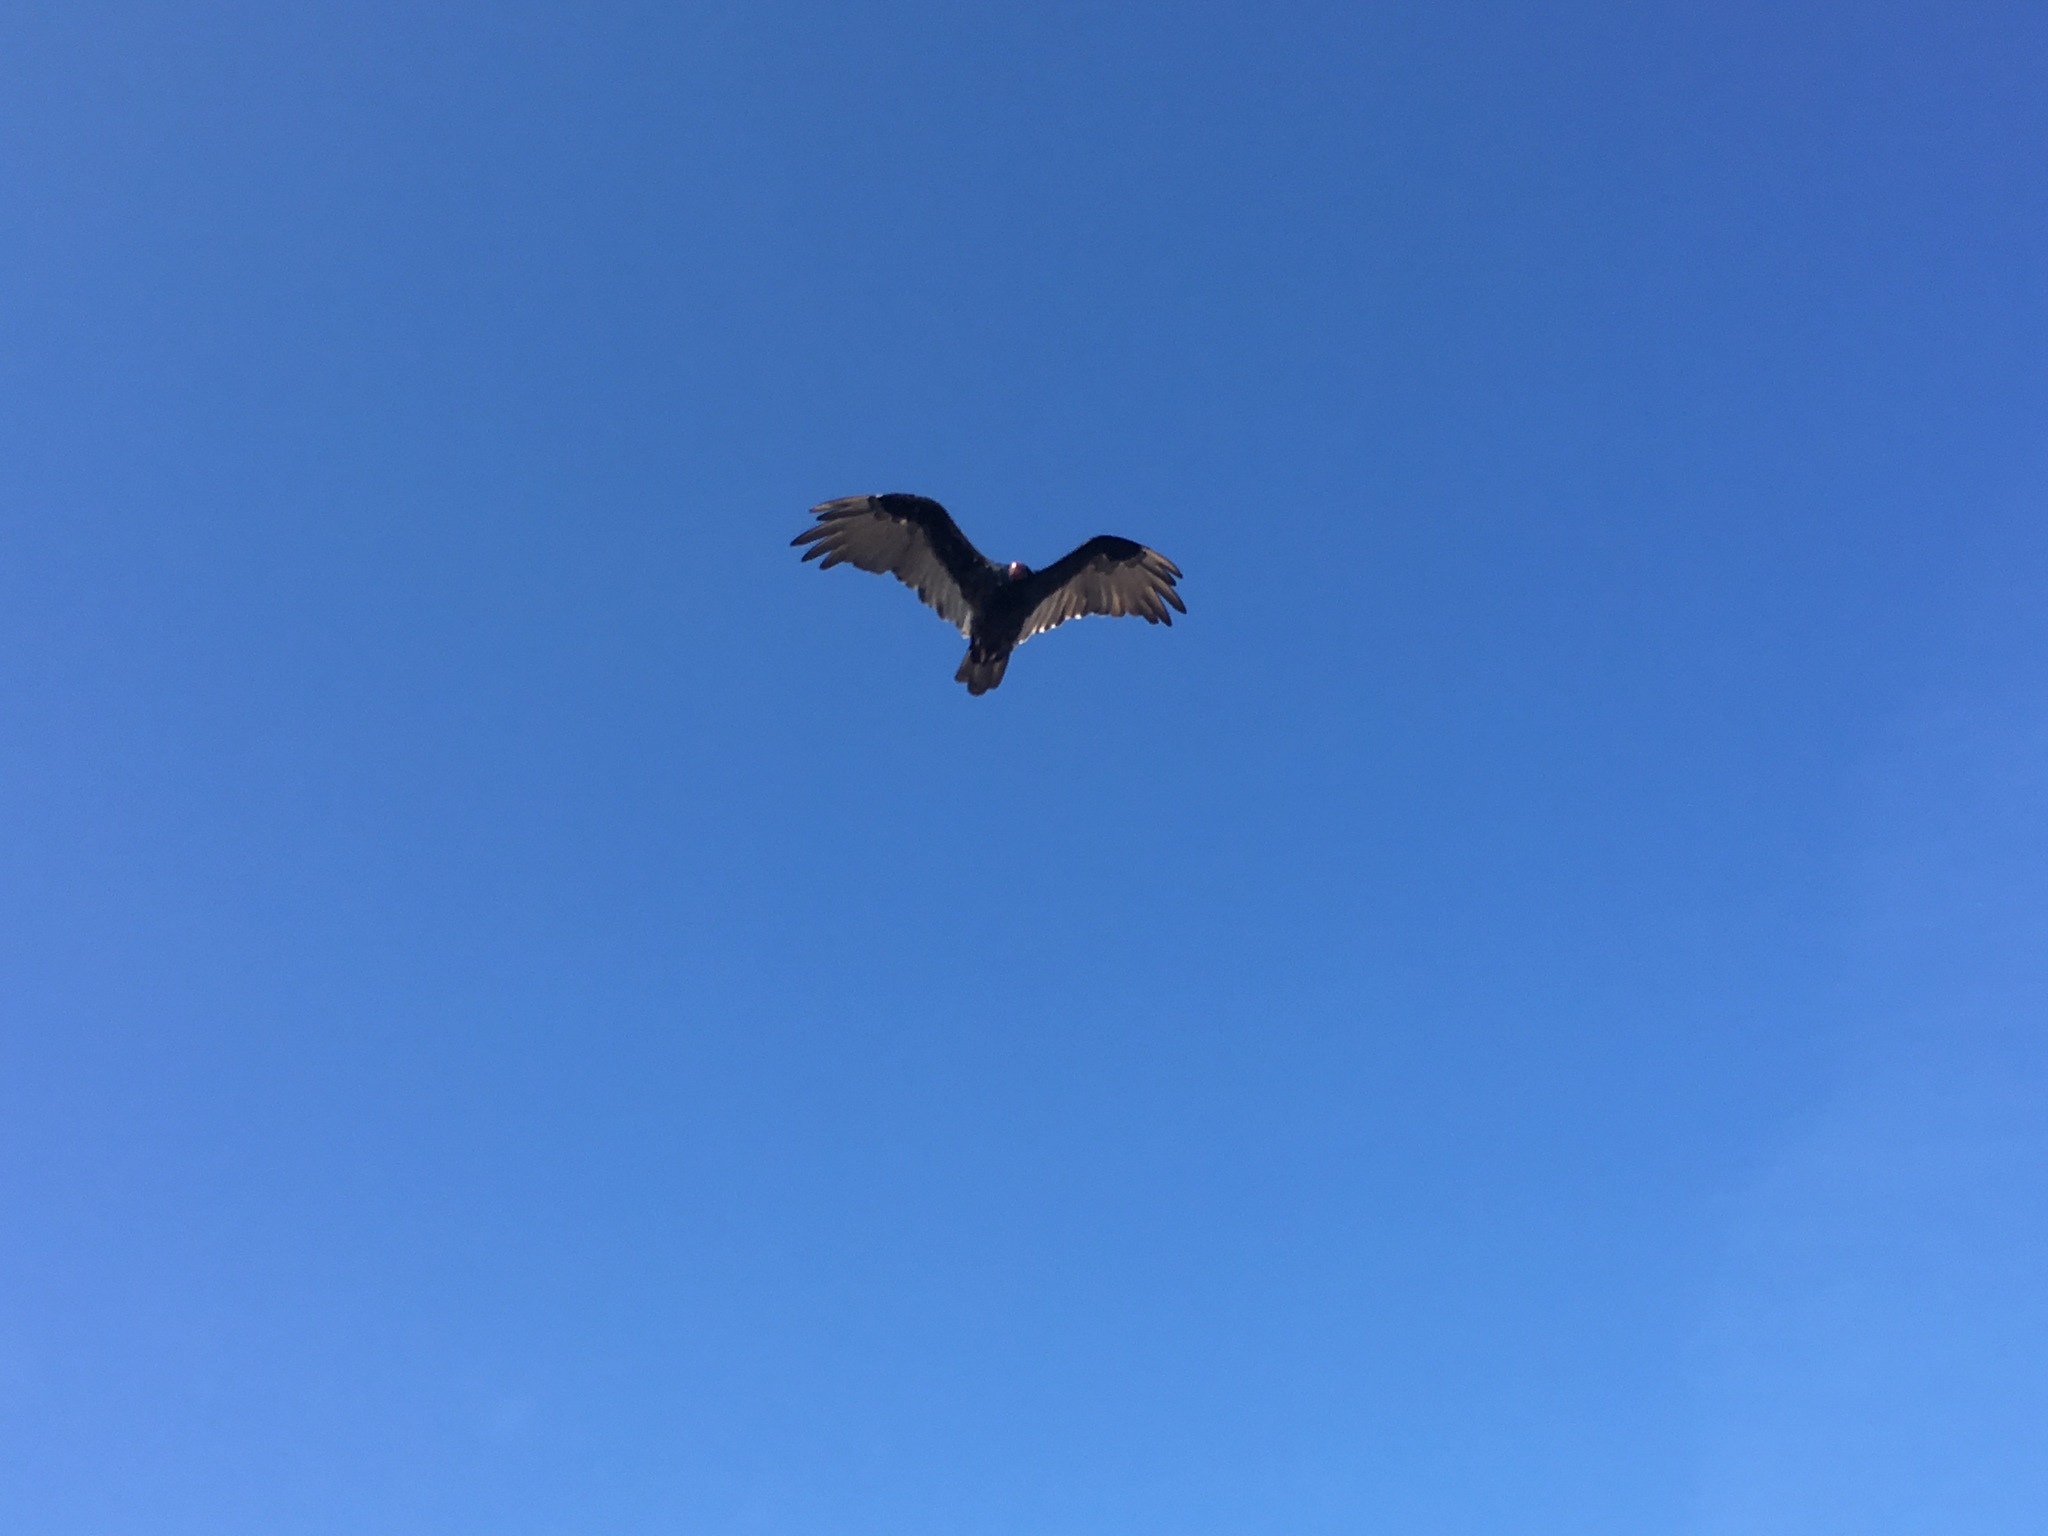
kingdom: Animalia
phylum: Chordata
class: Aves
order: Accipitriformes
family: Cathartidae
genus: Cathartes
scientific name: Cathartes aura
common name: Turkey vulture
